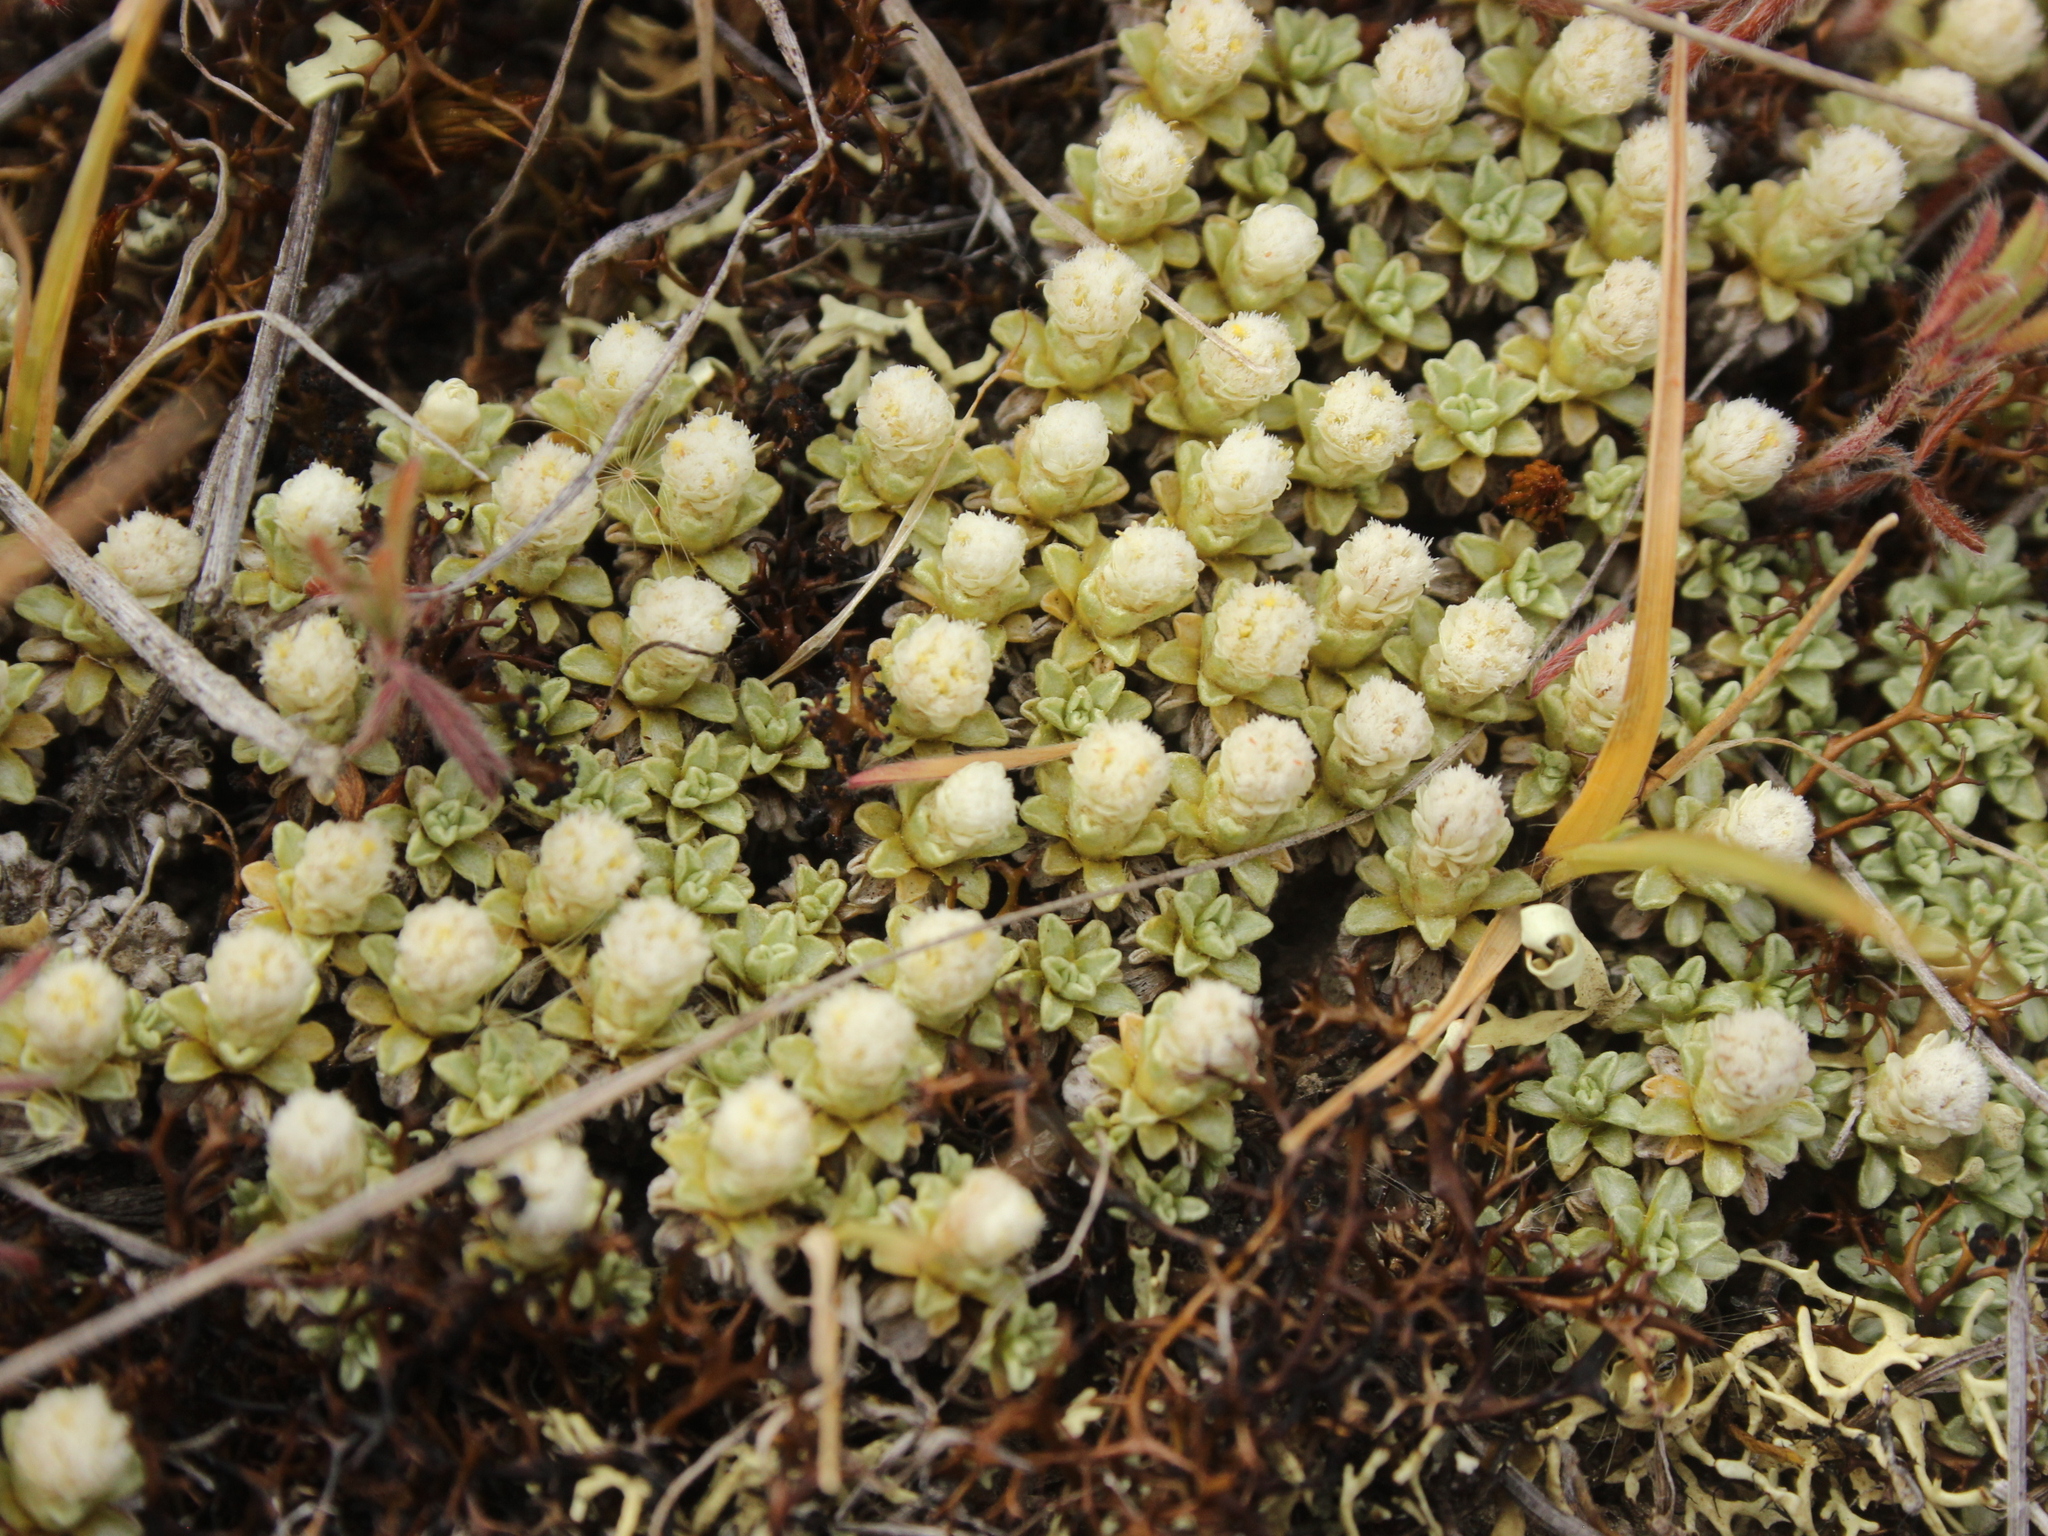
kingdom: Plantae
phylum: Tracheophyta
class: Magnoliopsida
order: Asterales
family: Asteraceae
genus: Raoulia
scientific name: Raoulia parkii
